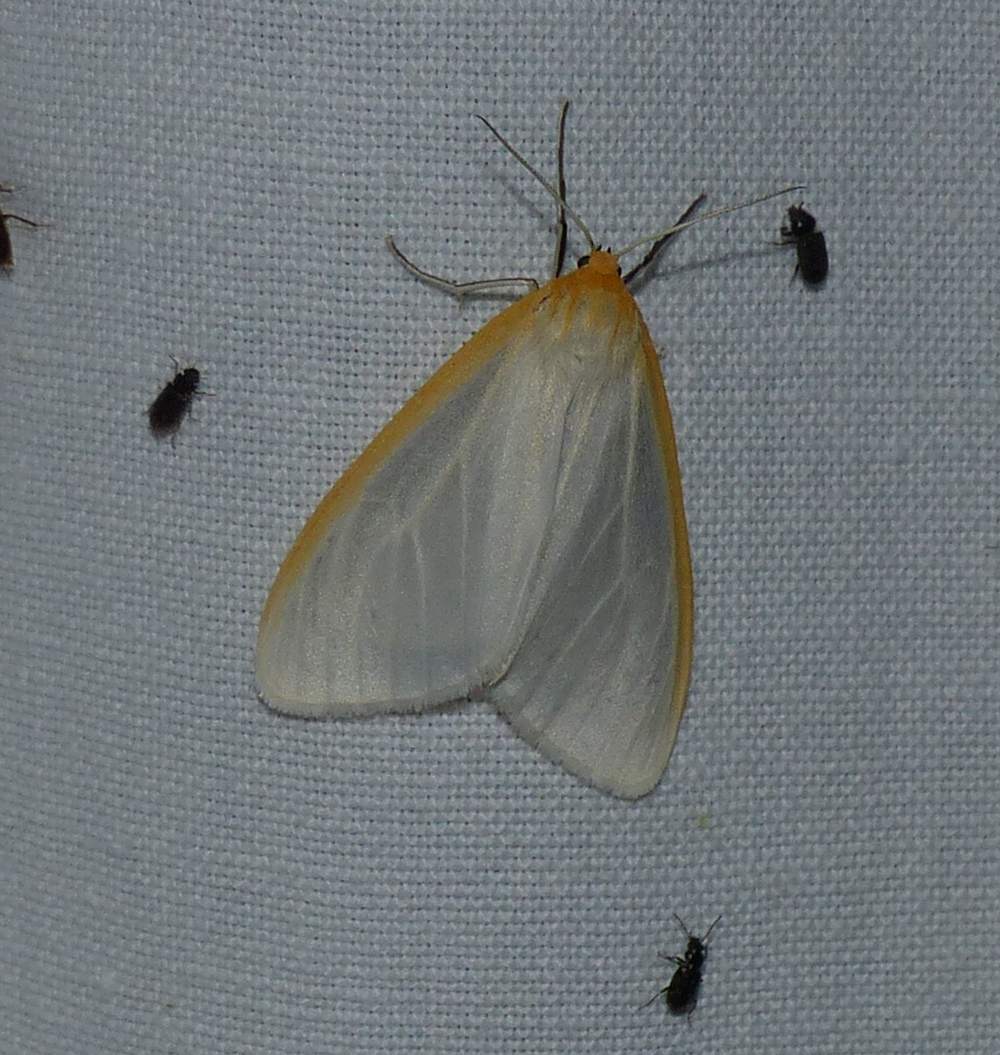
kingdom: Animalia
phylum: Arthropoda
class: Insecta
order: Lepidoptera
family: Erebidae
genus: Cycnia
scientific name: Cycnia tenera
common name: Delicate cycnia moth
